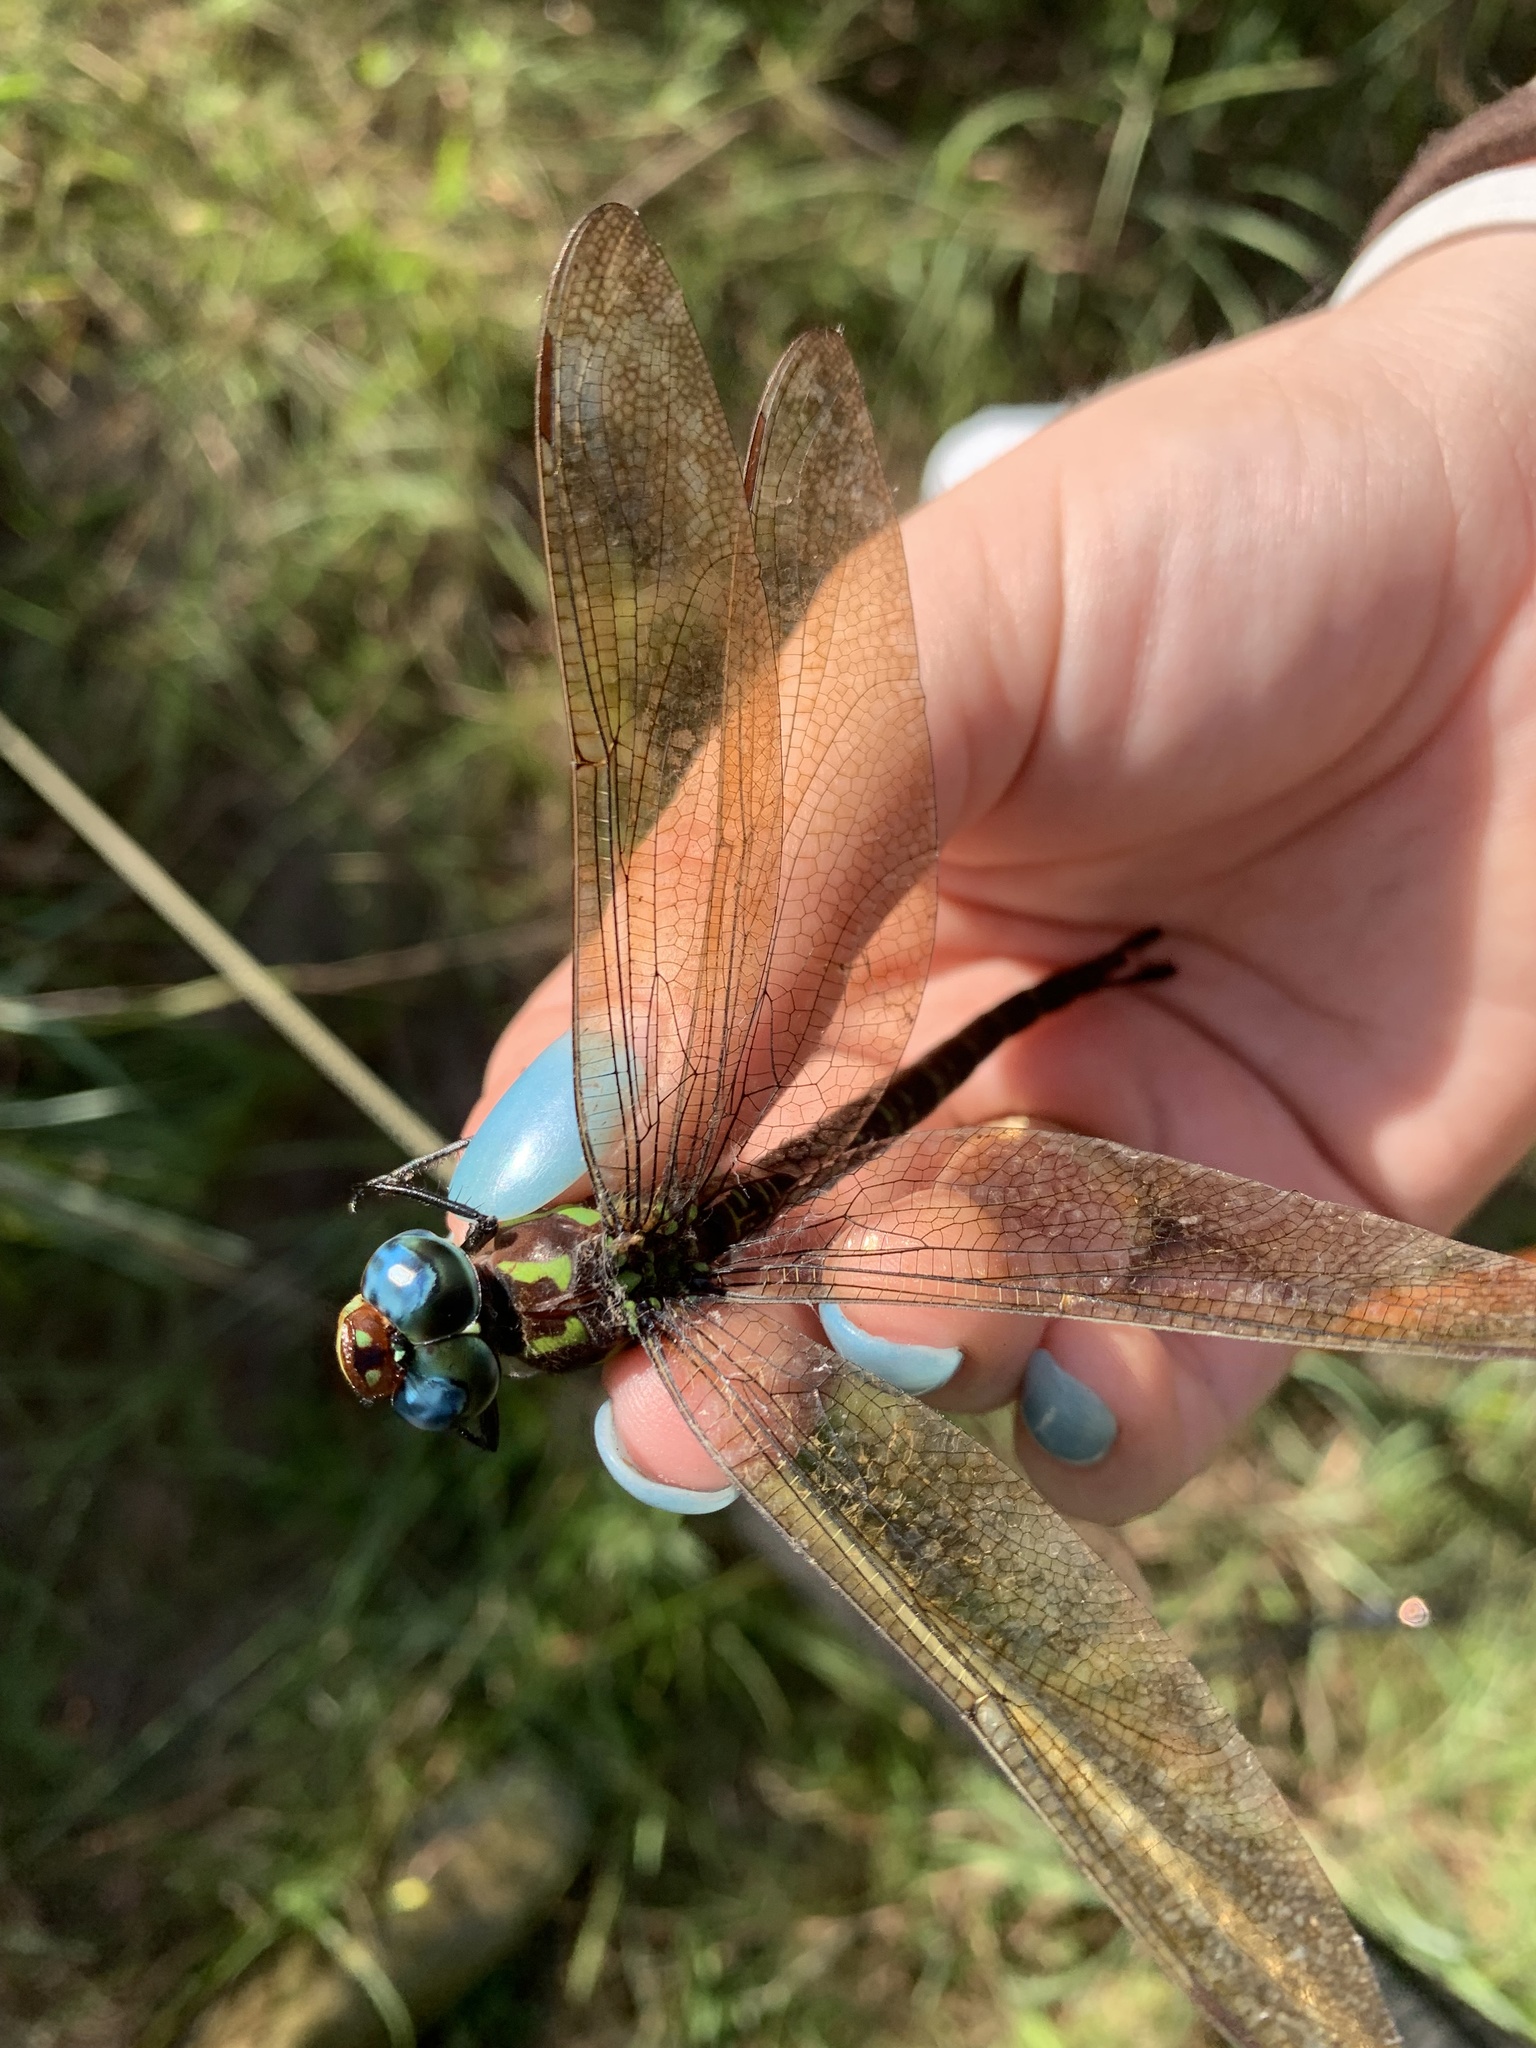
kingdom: Animalia
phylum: Arthropoda
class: Insecta
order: Odonata
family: Aeshnidae
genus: Epiaeschna
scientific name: Epiaeschna heros
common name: Swamp darner
